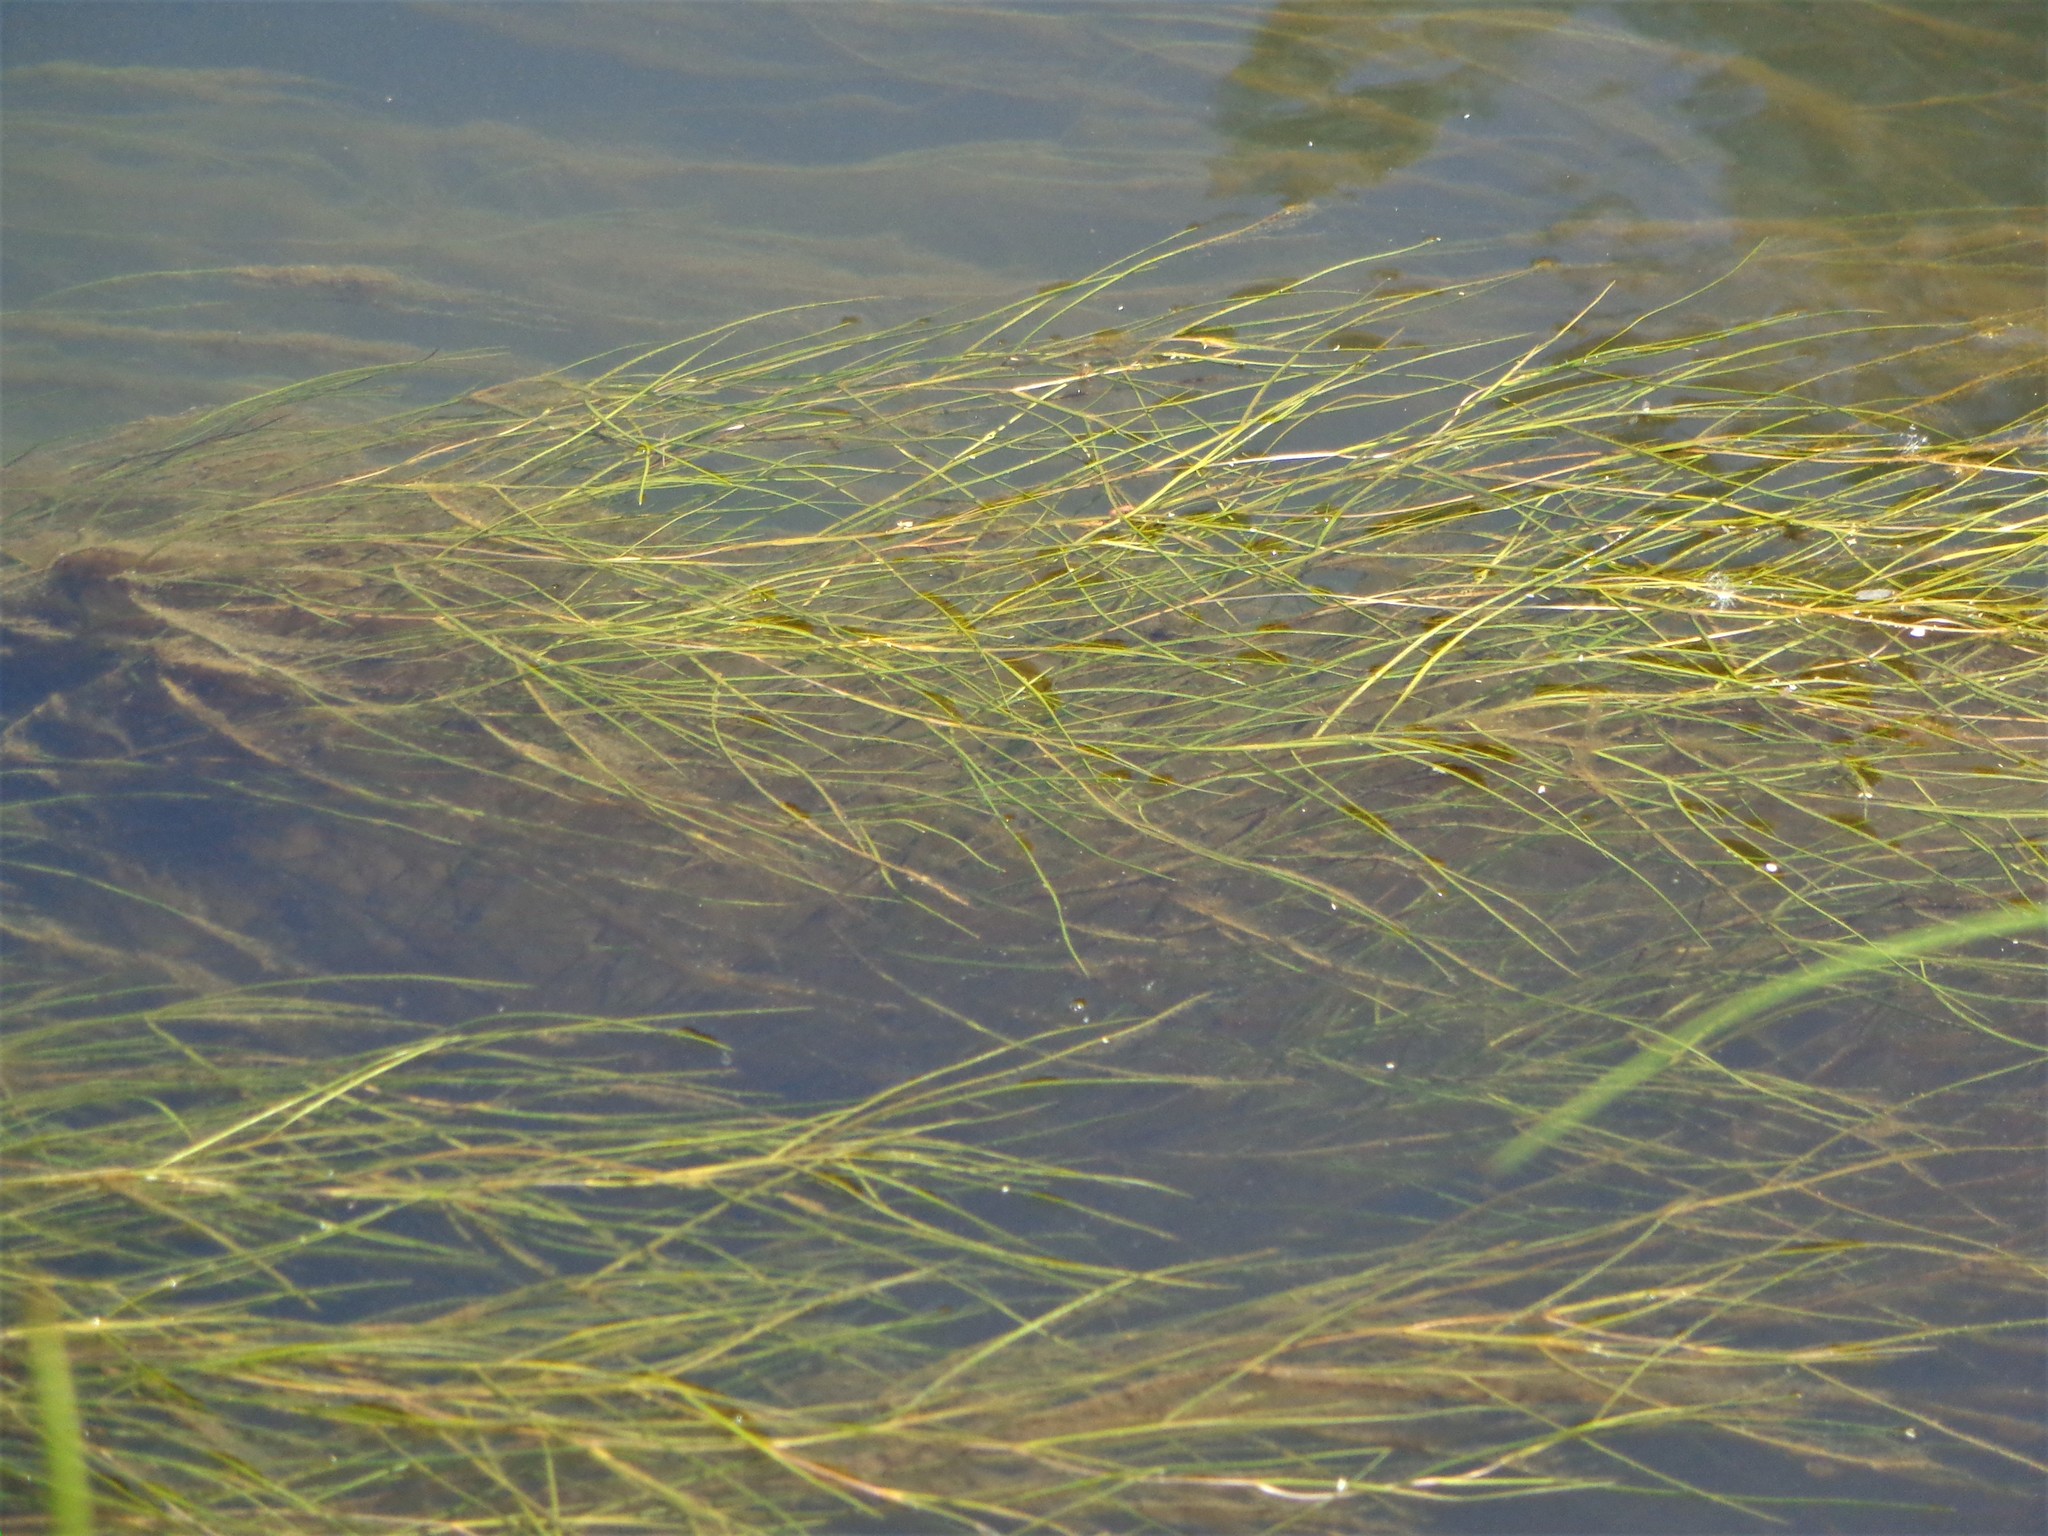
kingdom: Plantae
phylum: Tracheophyta
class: Liliopsida
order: Alismatales
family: Potamogetonaceae
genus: Stuckenia
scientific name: Stuckenia pectinata
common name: Sago pondweed
